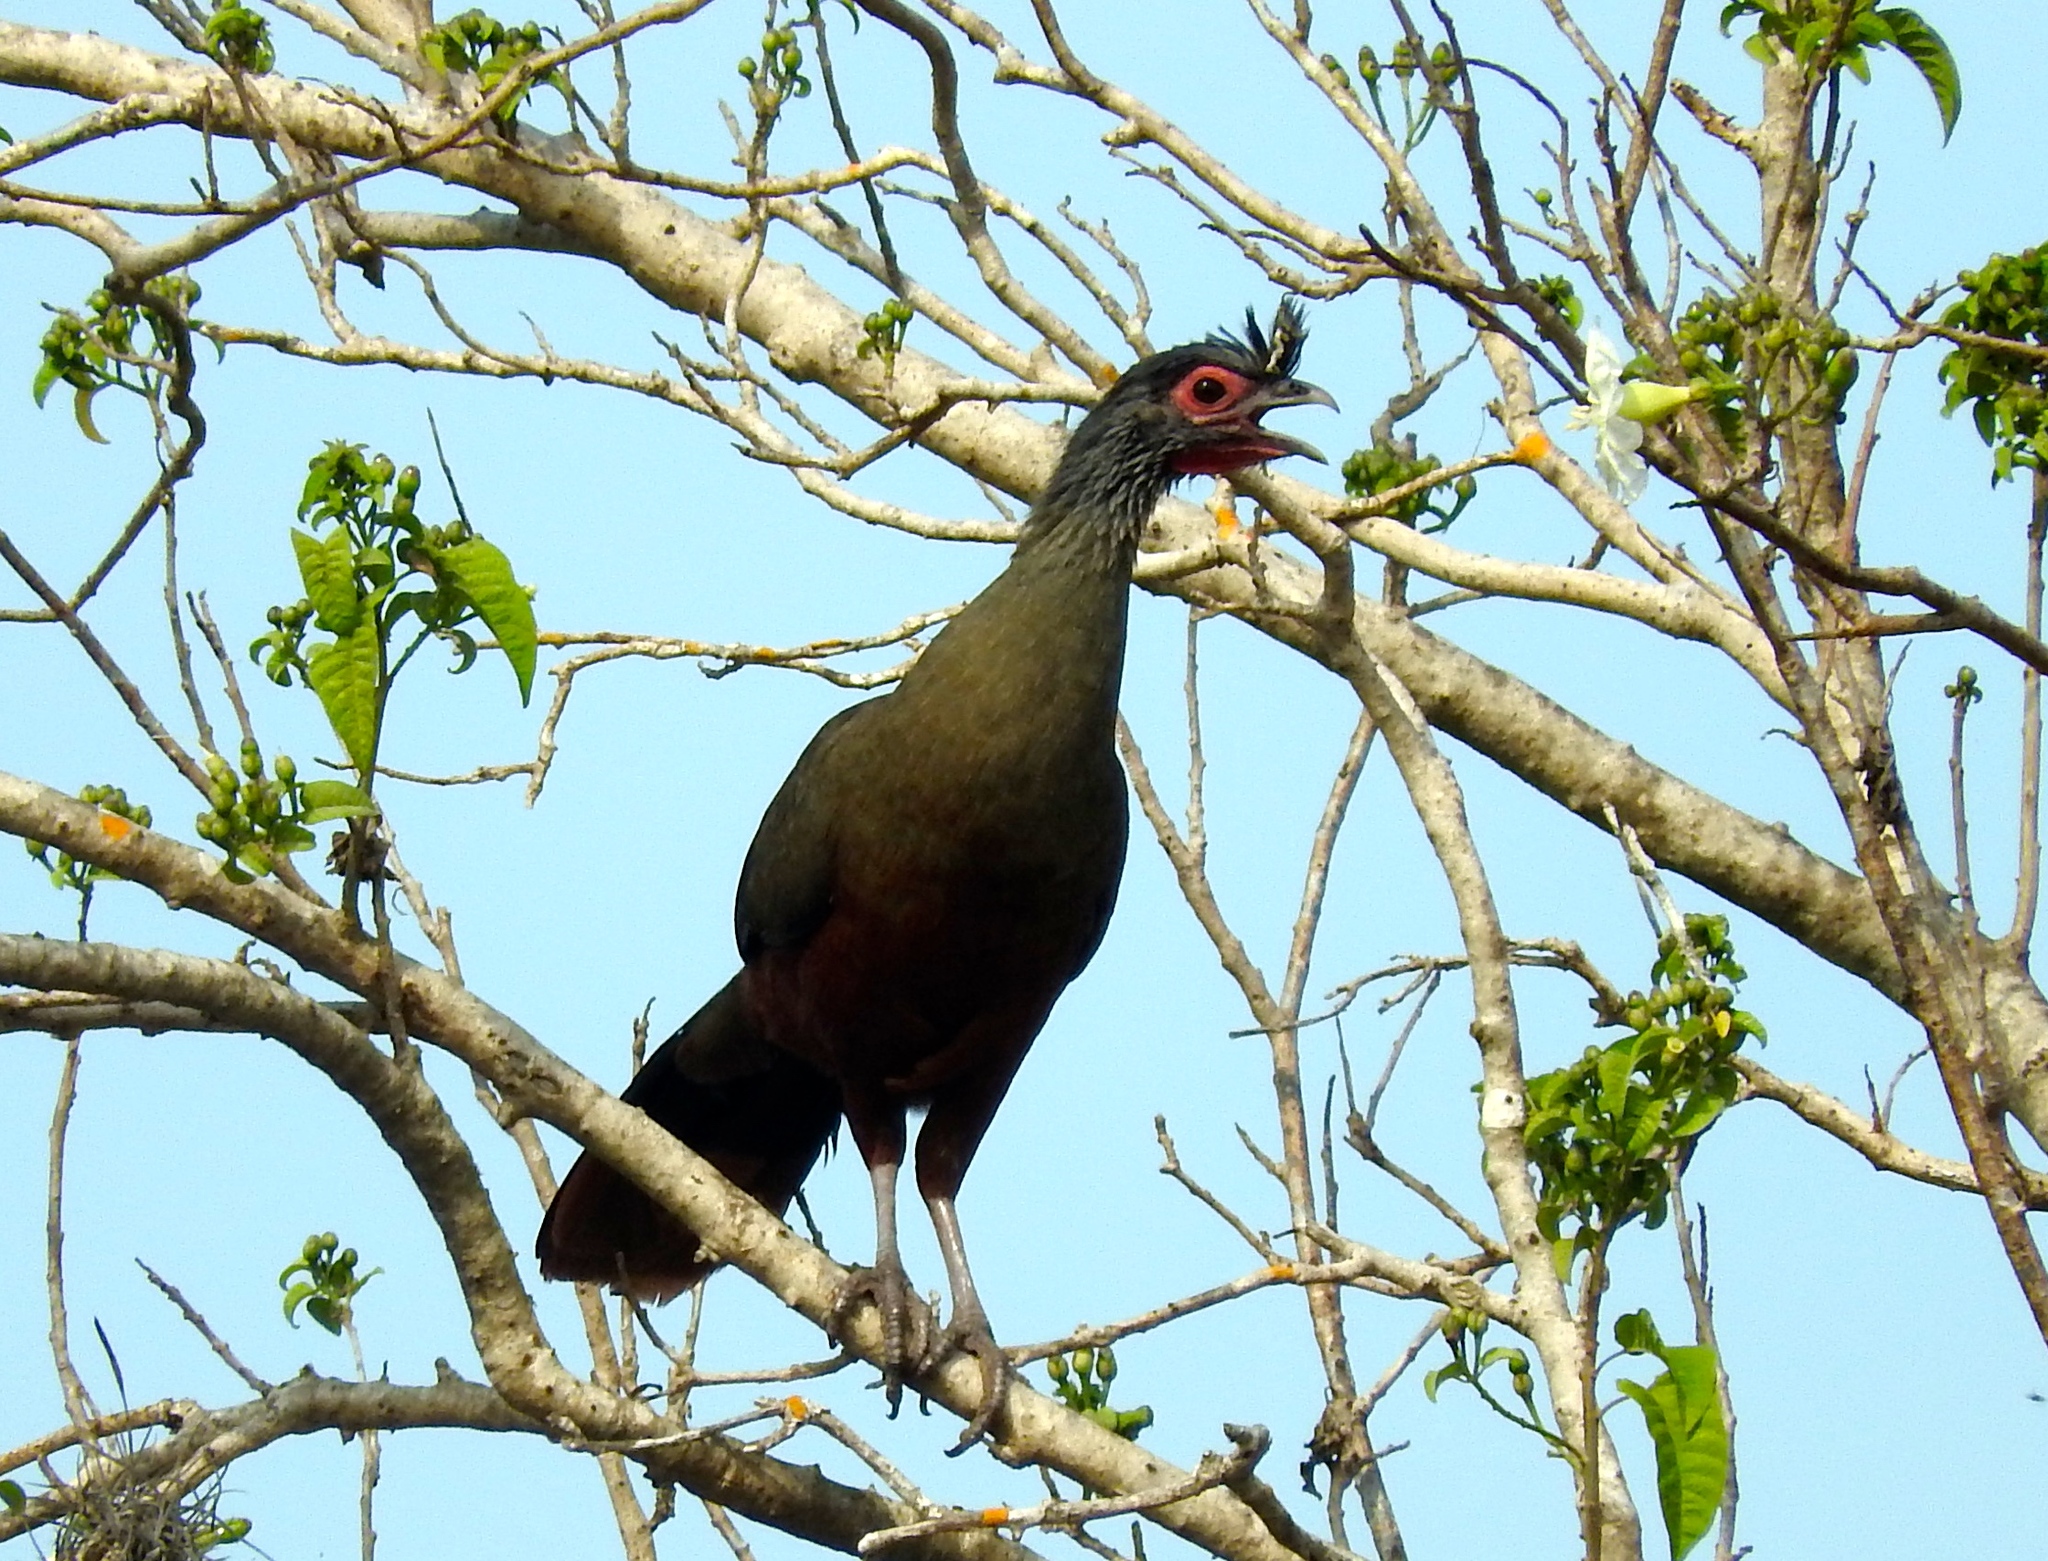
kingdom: Animalia
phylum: Chordata
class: Aves
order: Galliformes
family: Cracidae
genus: Ortalis
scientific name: Ortalis wagleri
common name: Rufous-bellied chachalaca
